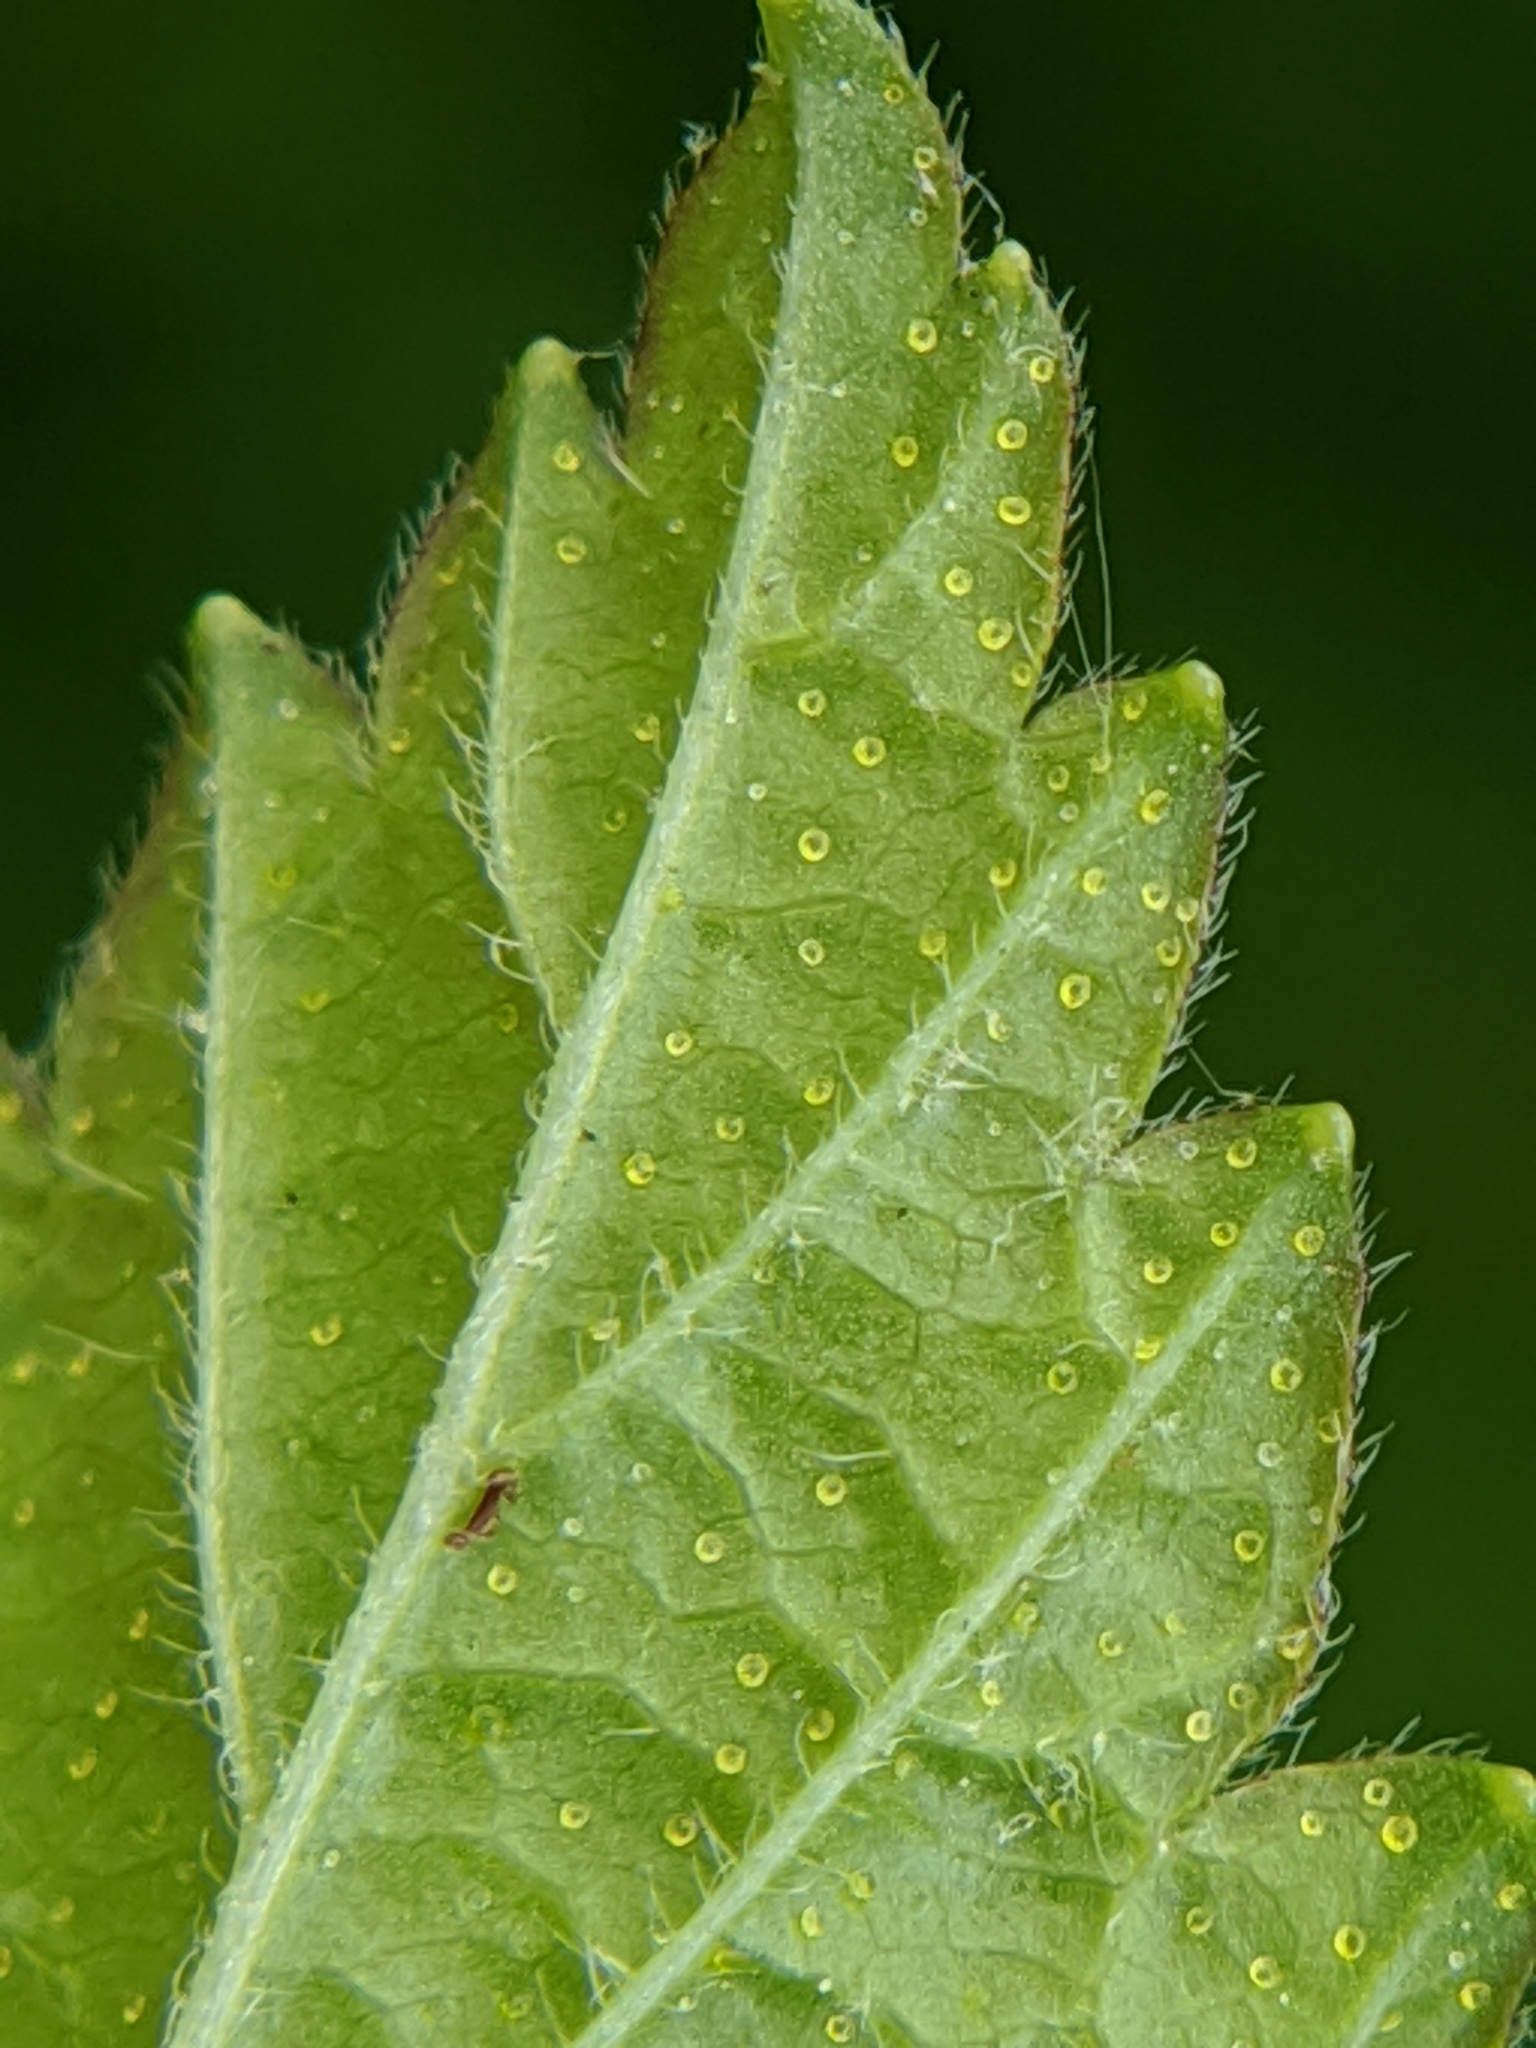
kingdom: Plantae
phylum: Tracheophyta
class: Magnoliopsida
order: Saxifragales
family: Grossulariaceae
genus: Ribes
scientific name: Ribes americanum
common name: American black currant
